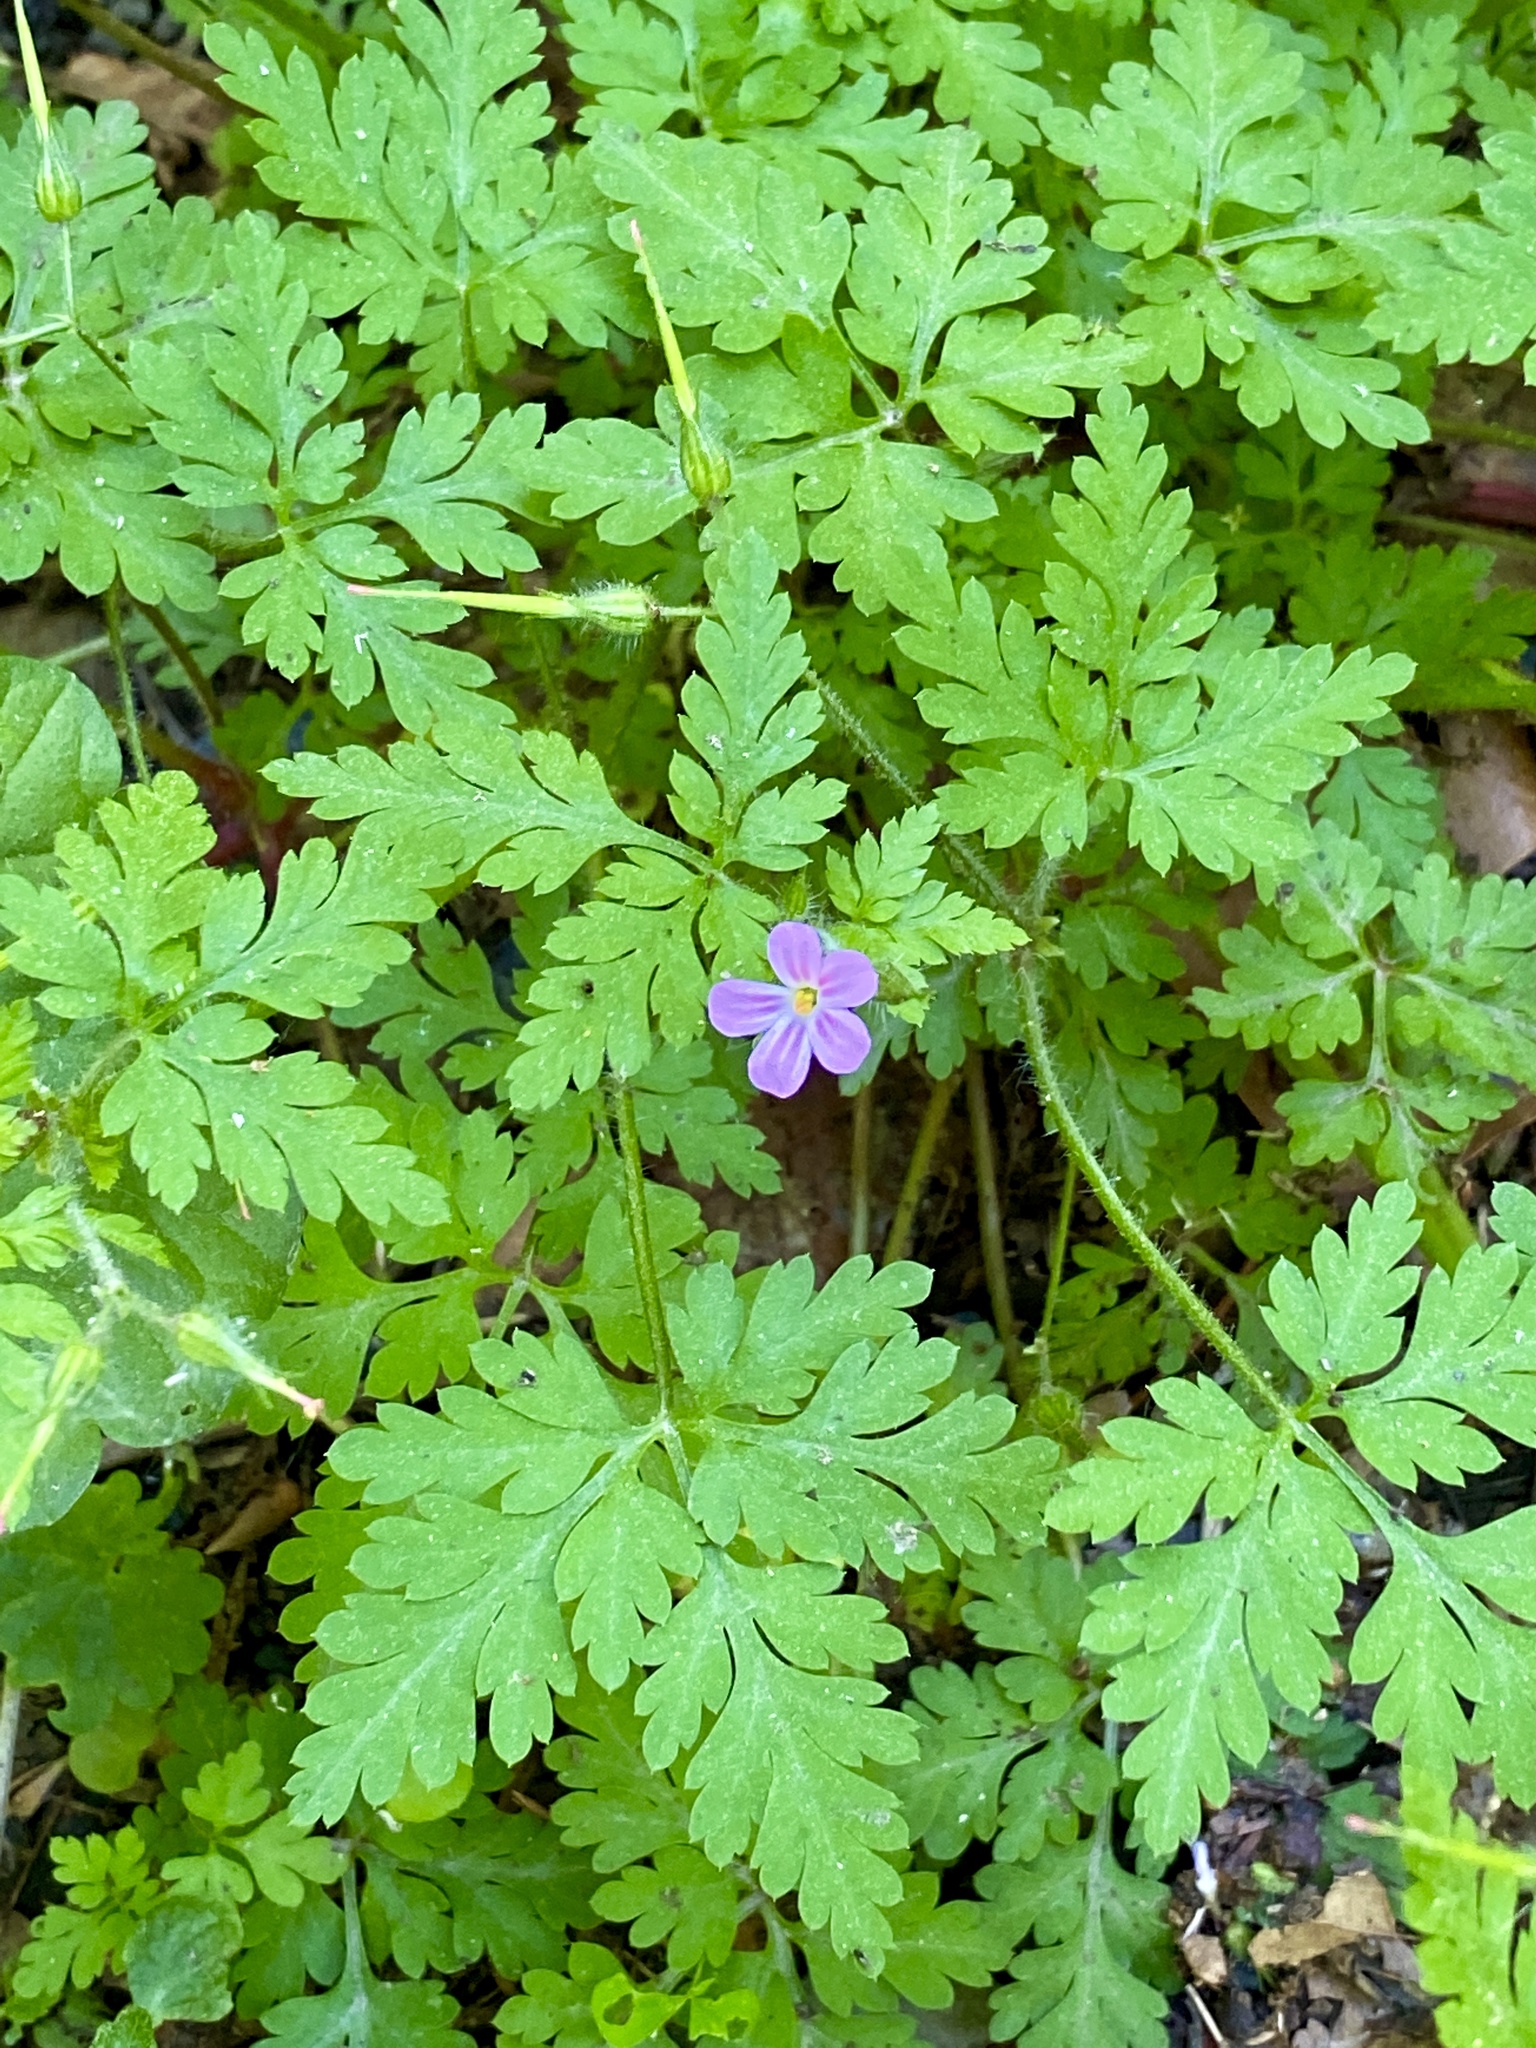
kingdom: Plantae
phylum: Tracheophyta
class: Magnoliopsida
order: Geraniales
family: Geraniaceae
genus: Geranium
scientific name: Geranium robertianum
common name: Herb-robert
